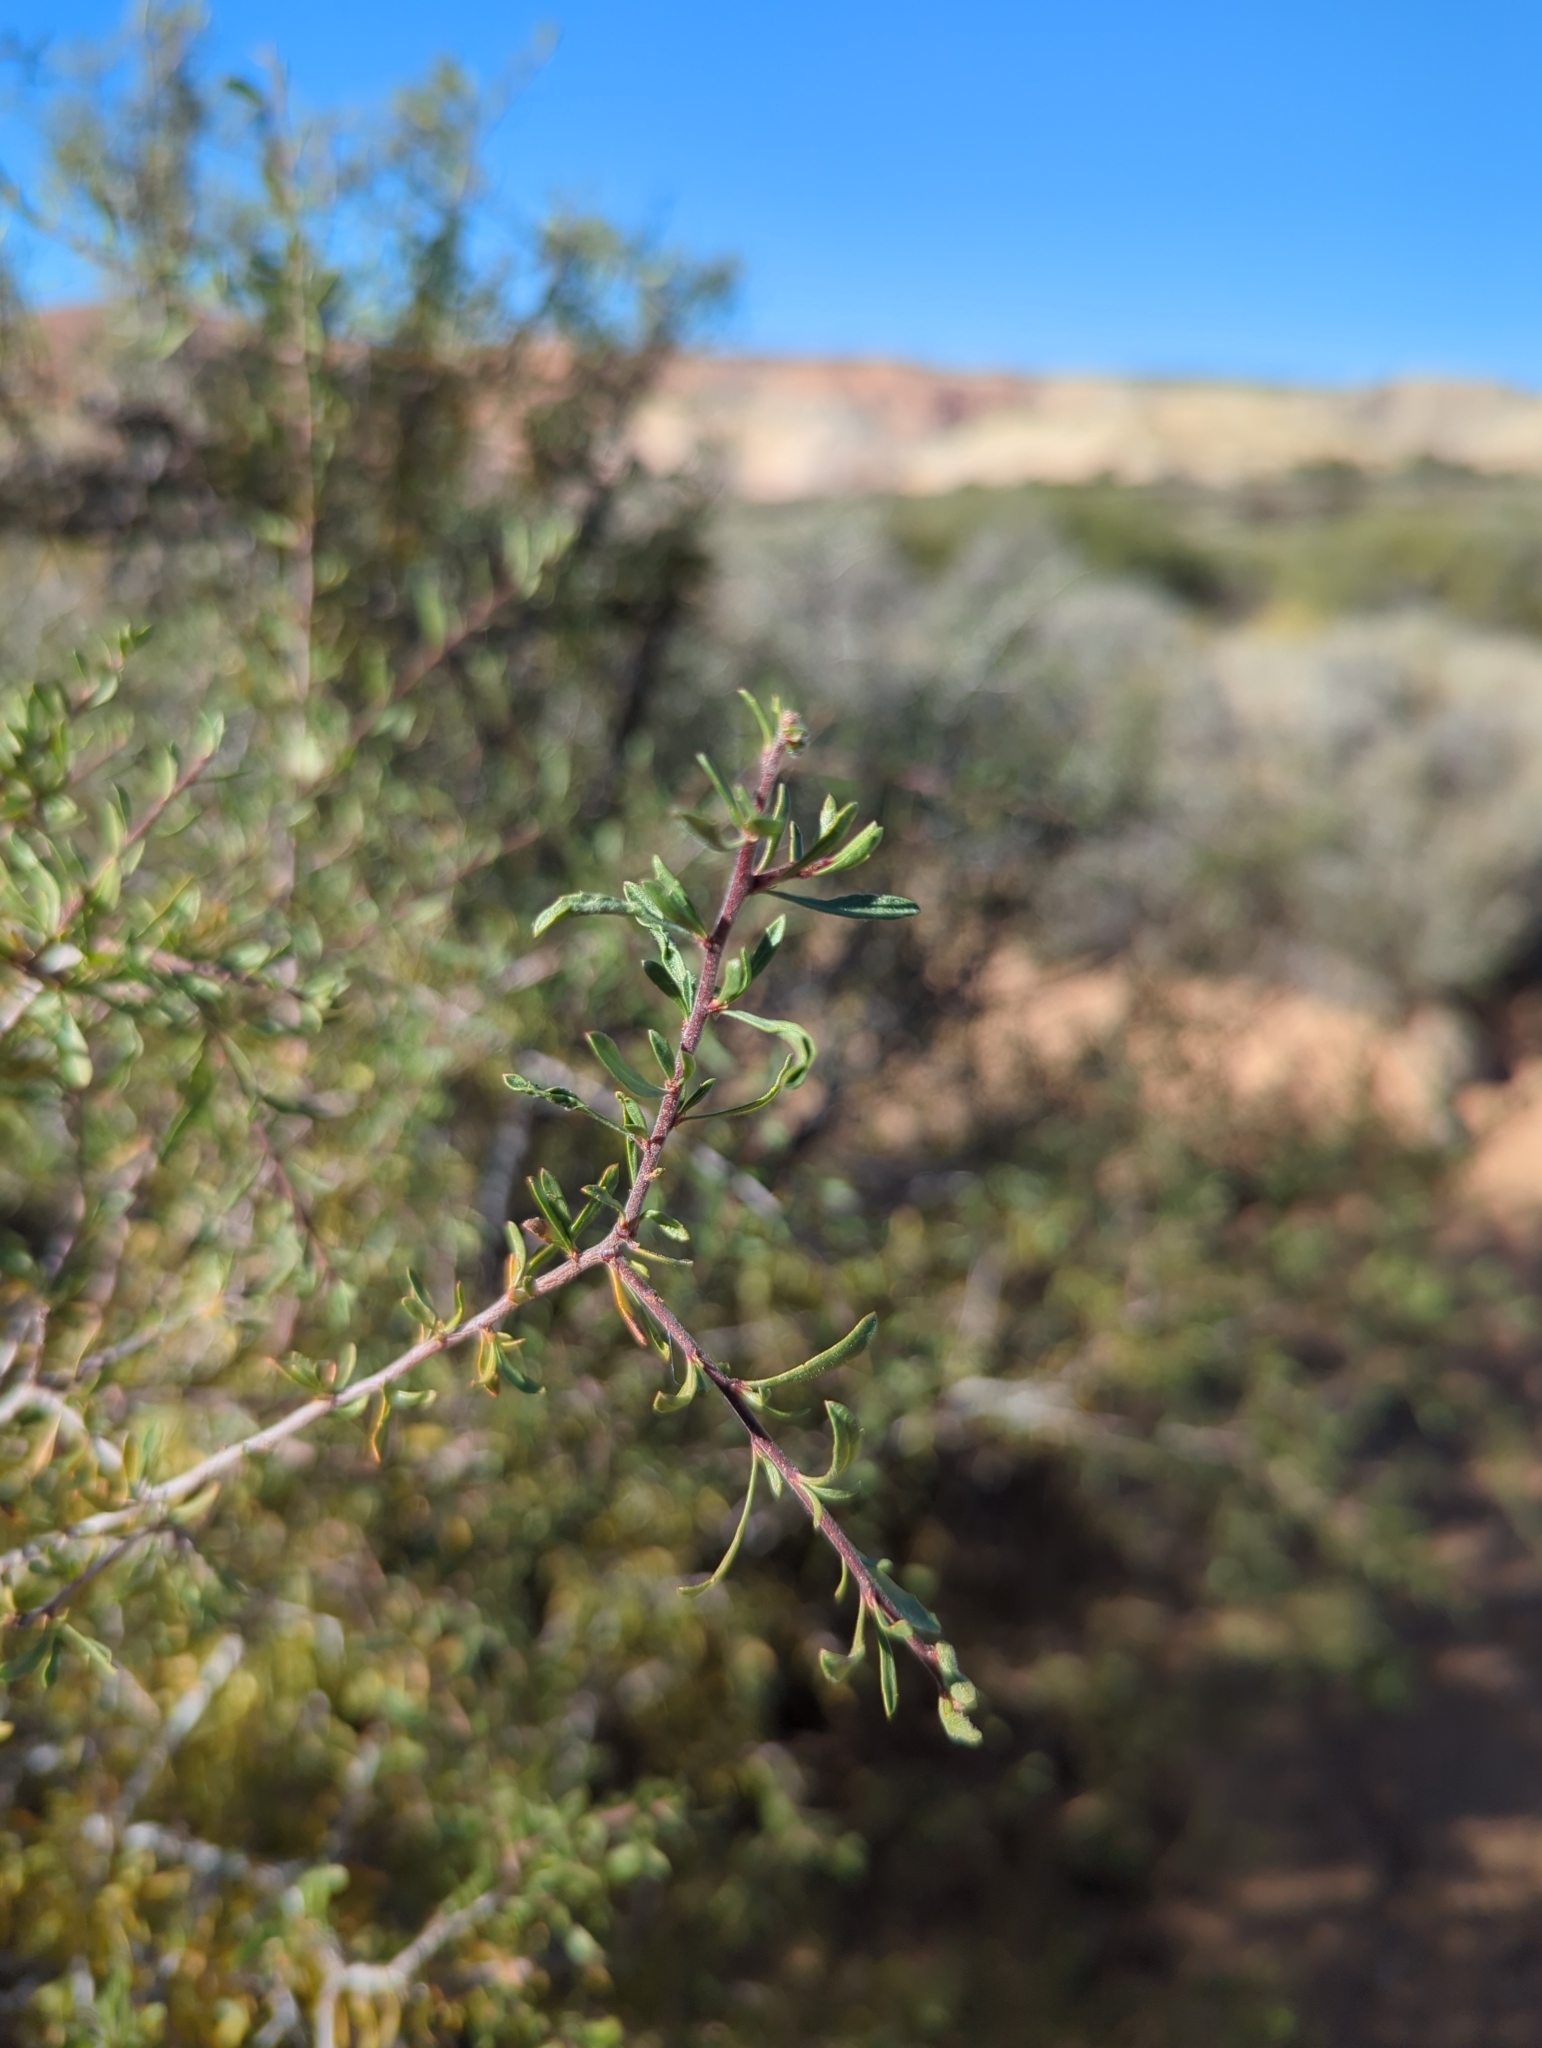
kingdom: Plantae
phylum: Tracheophyta
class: Magnoliopsida
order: Rosales
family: Rosaceae
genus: Prunus
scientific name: Prunus fasciculata
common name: Desert almond
